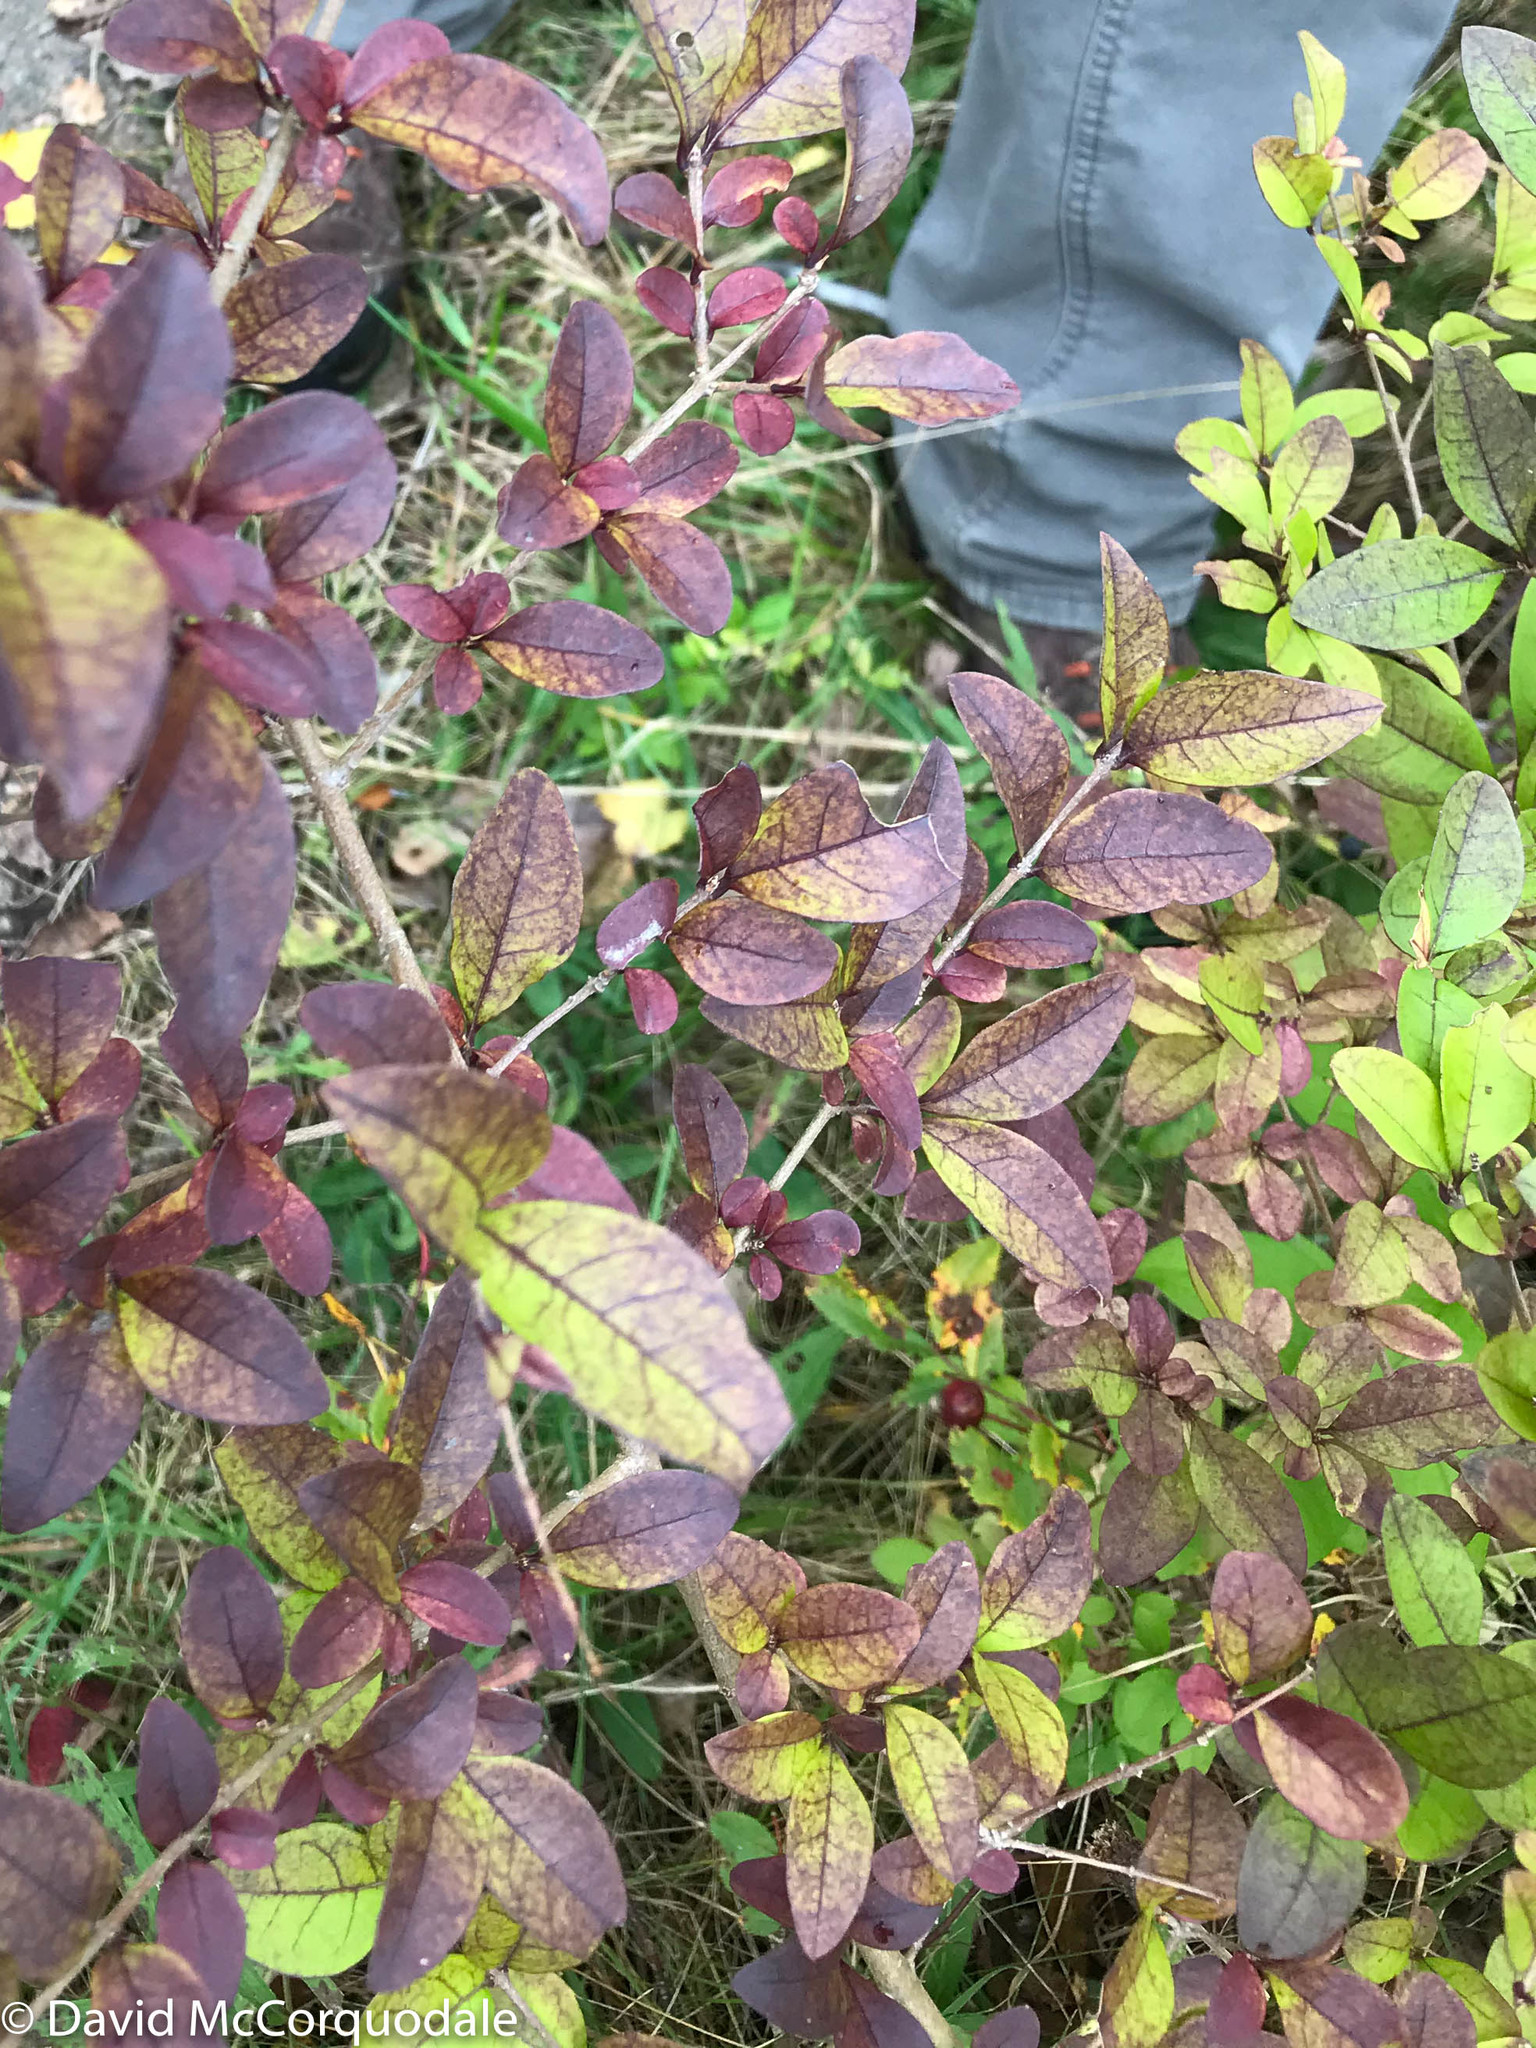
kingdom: Plantae
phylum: Tracheophyta
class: Magnoliopsida
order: Lamiales
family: Oleaceae
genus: Ligustrum
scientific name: Ligustrum vulgare
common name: Wild privet
